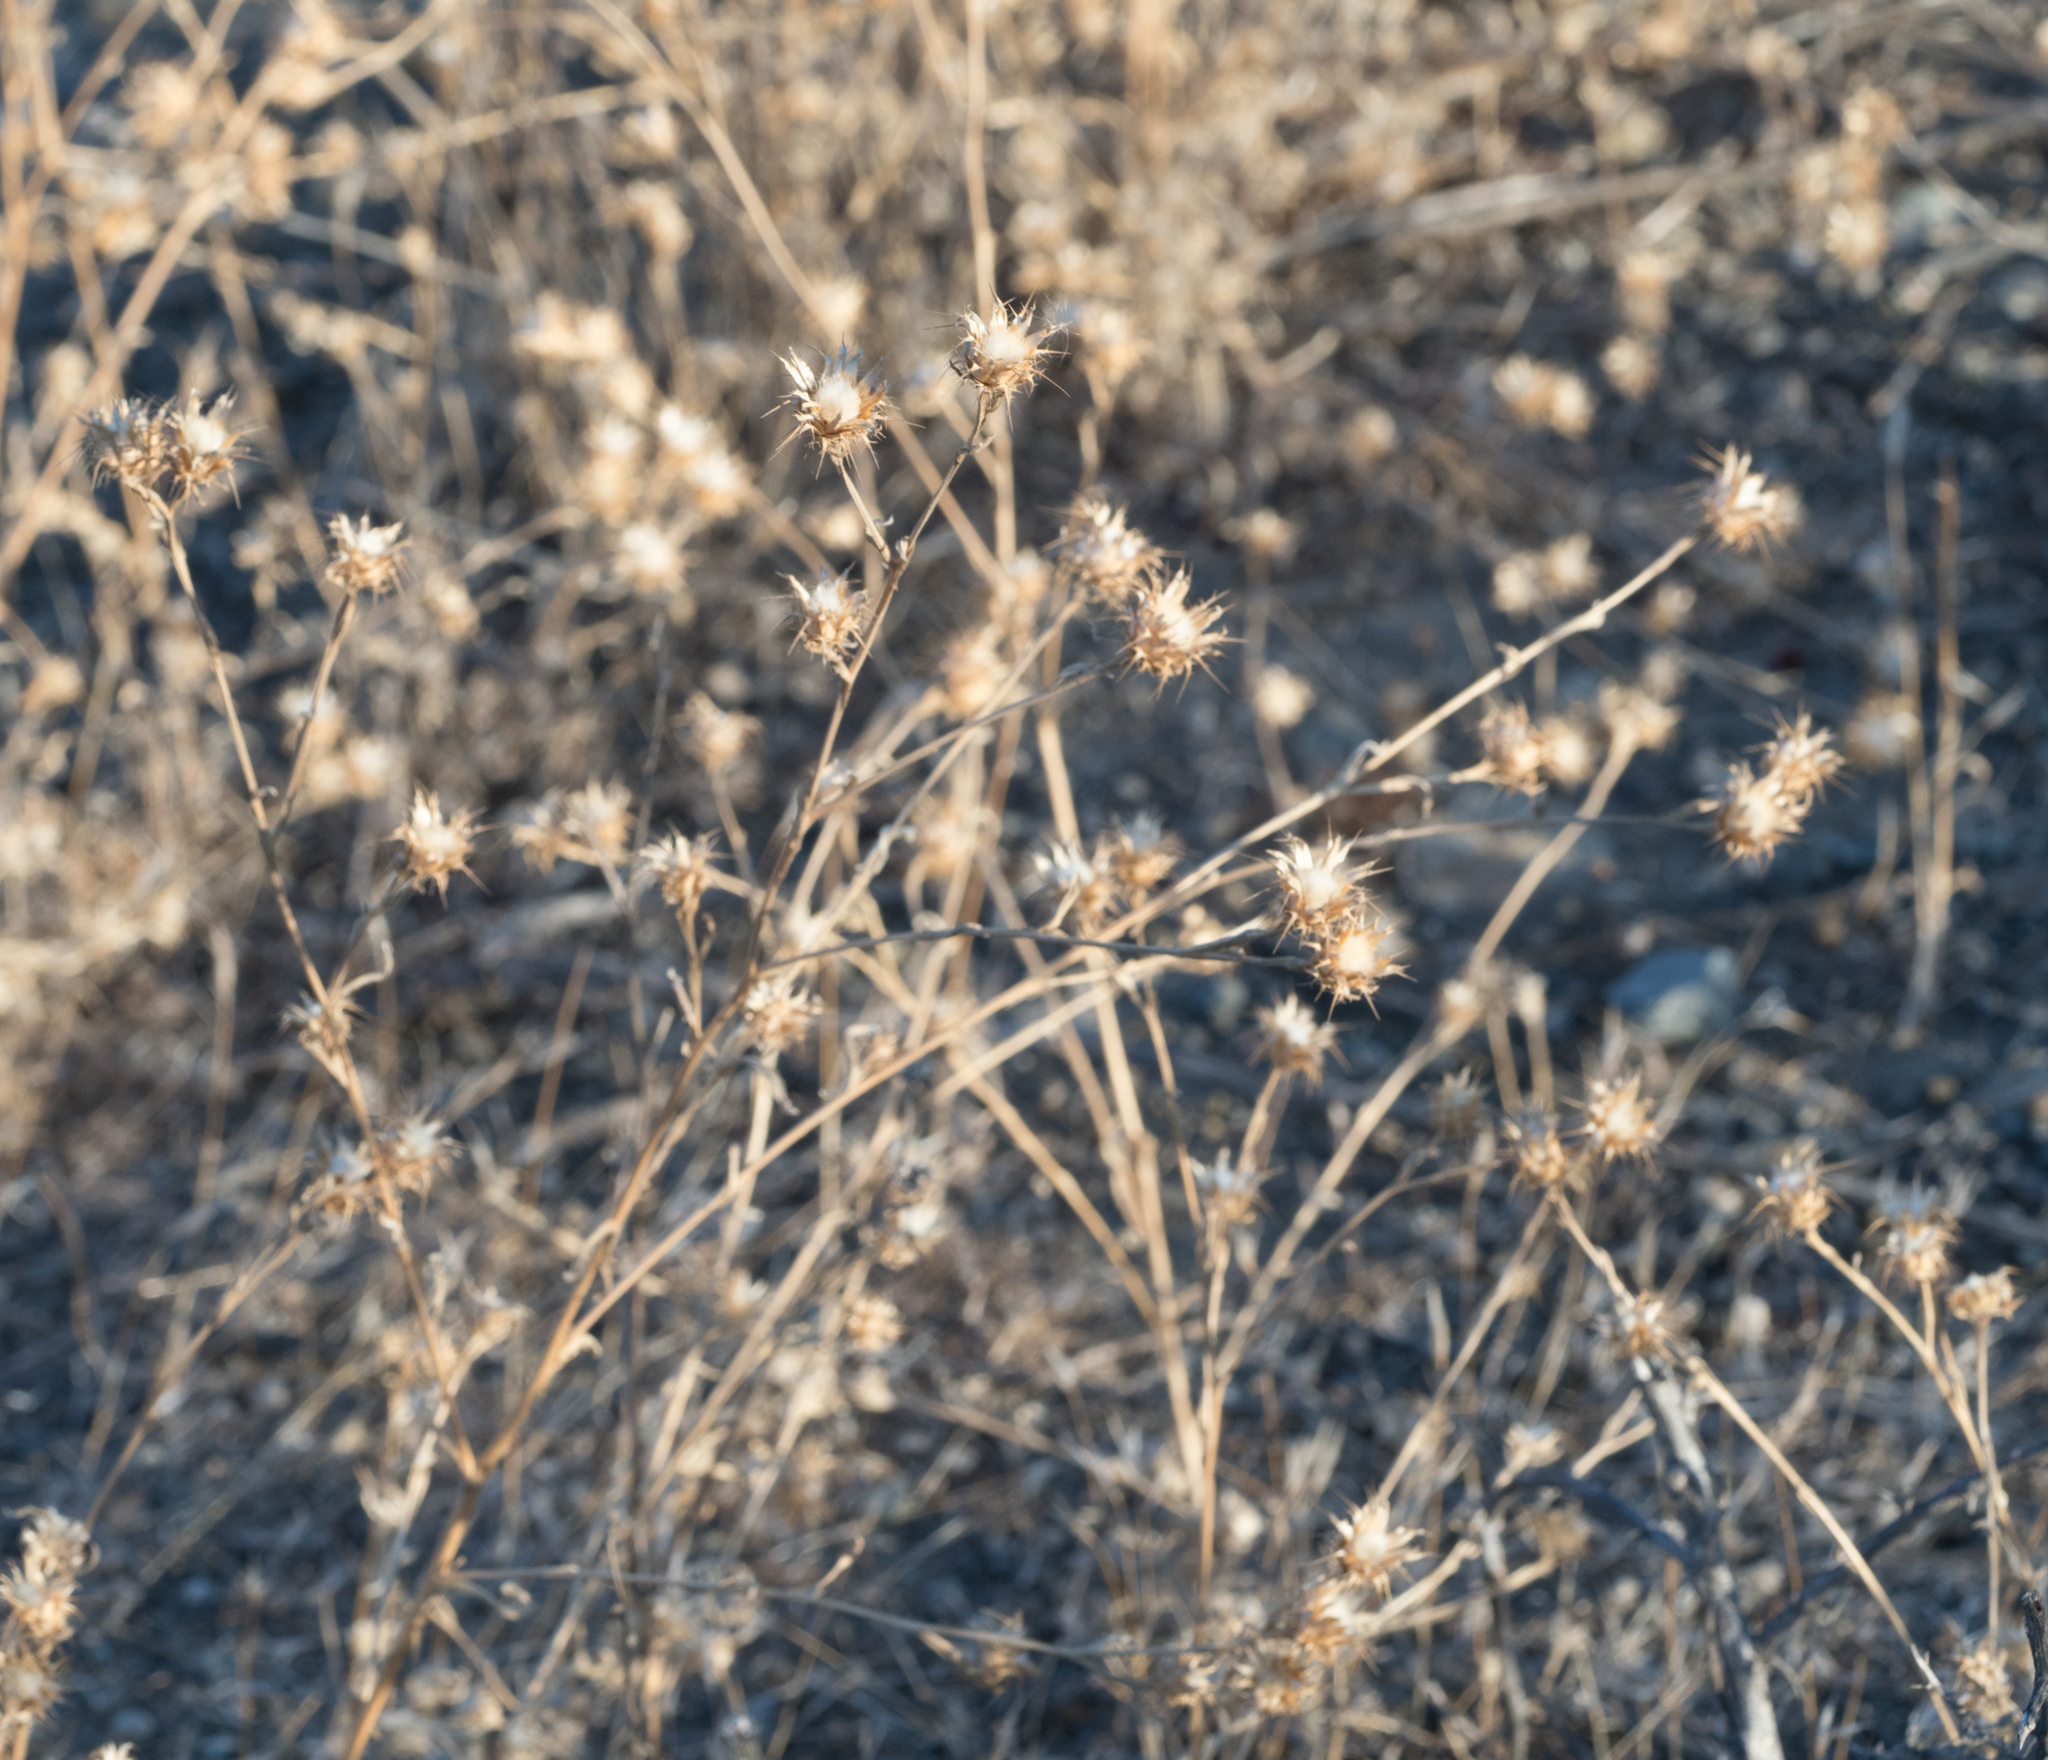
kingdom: Plantae
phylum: Tracheophyta
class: Magnoliopsida
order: Asterales
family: Asteraceae
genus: Centaurea
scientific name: Centaurea melitensis
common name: Maltese star-thistle
